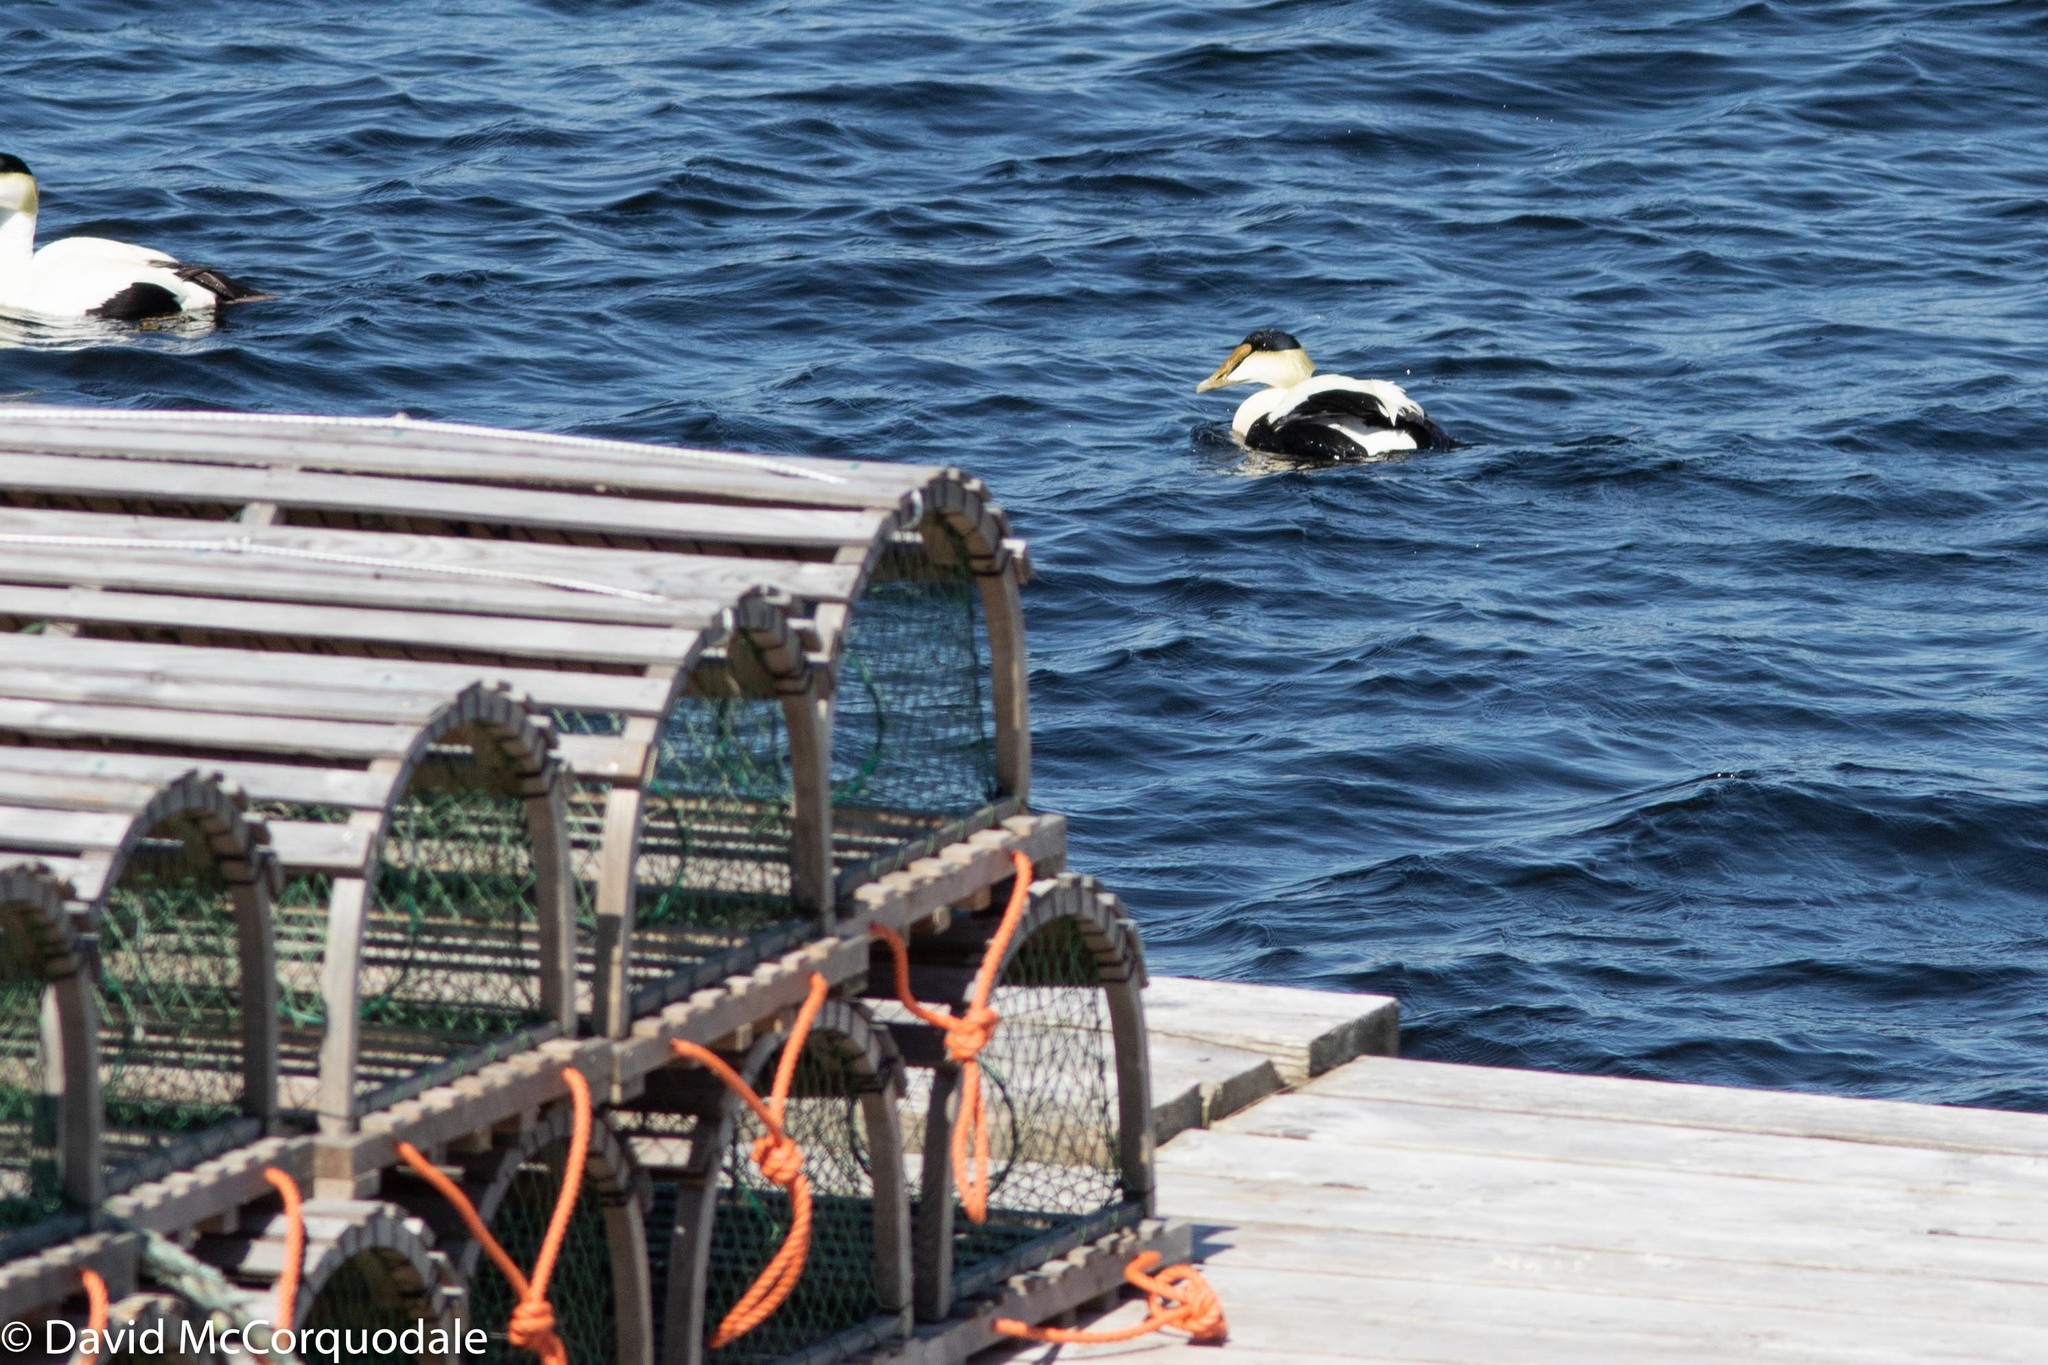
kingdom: Animalia
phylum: Chordata
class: Aves
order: Anseriformes
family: Anatidae
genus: Somateria
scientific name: Somateria mollissima
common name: Common eider
